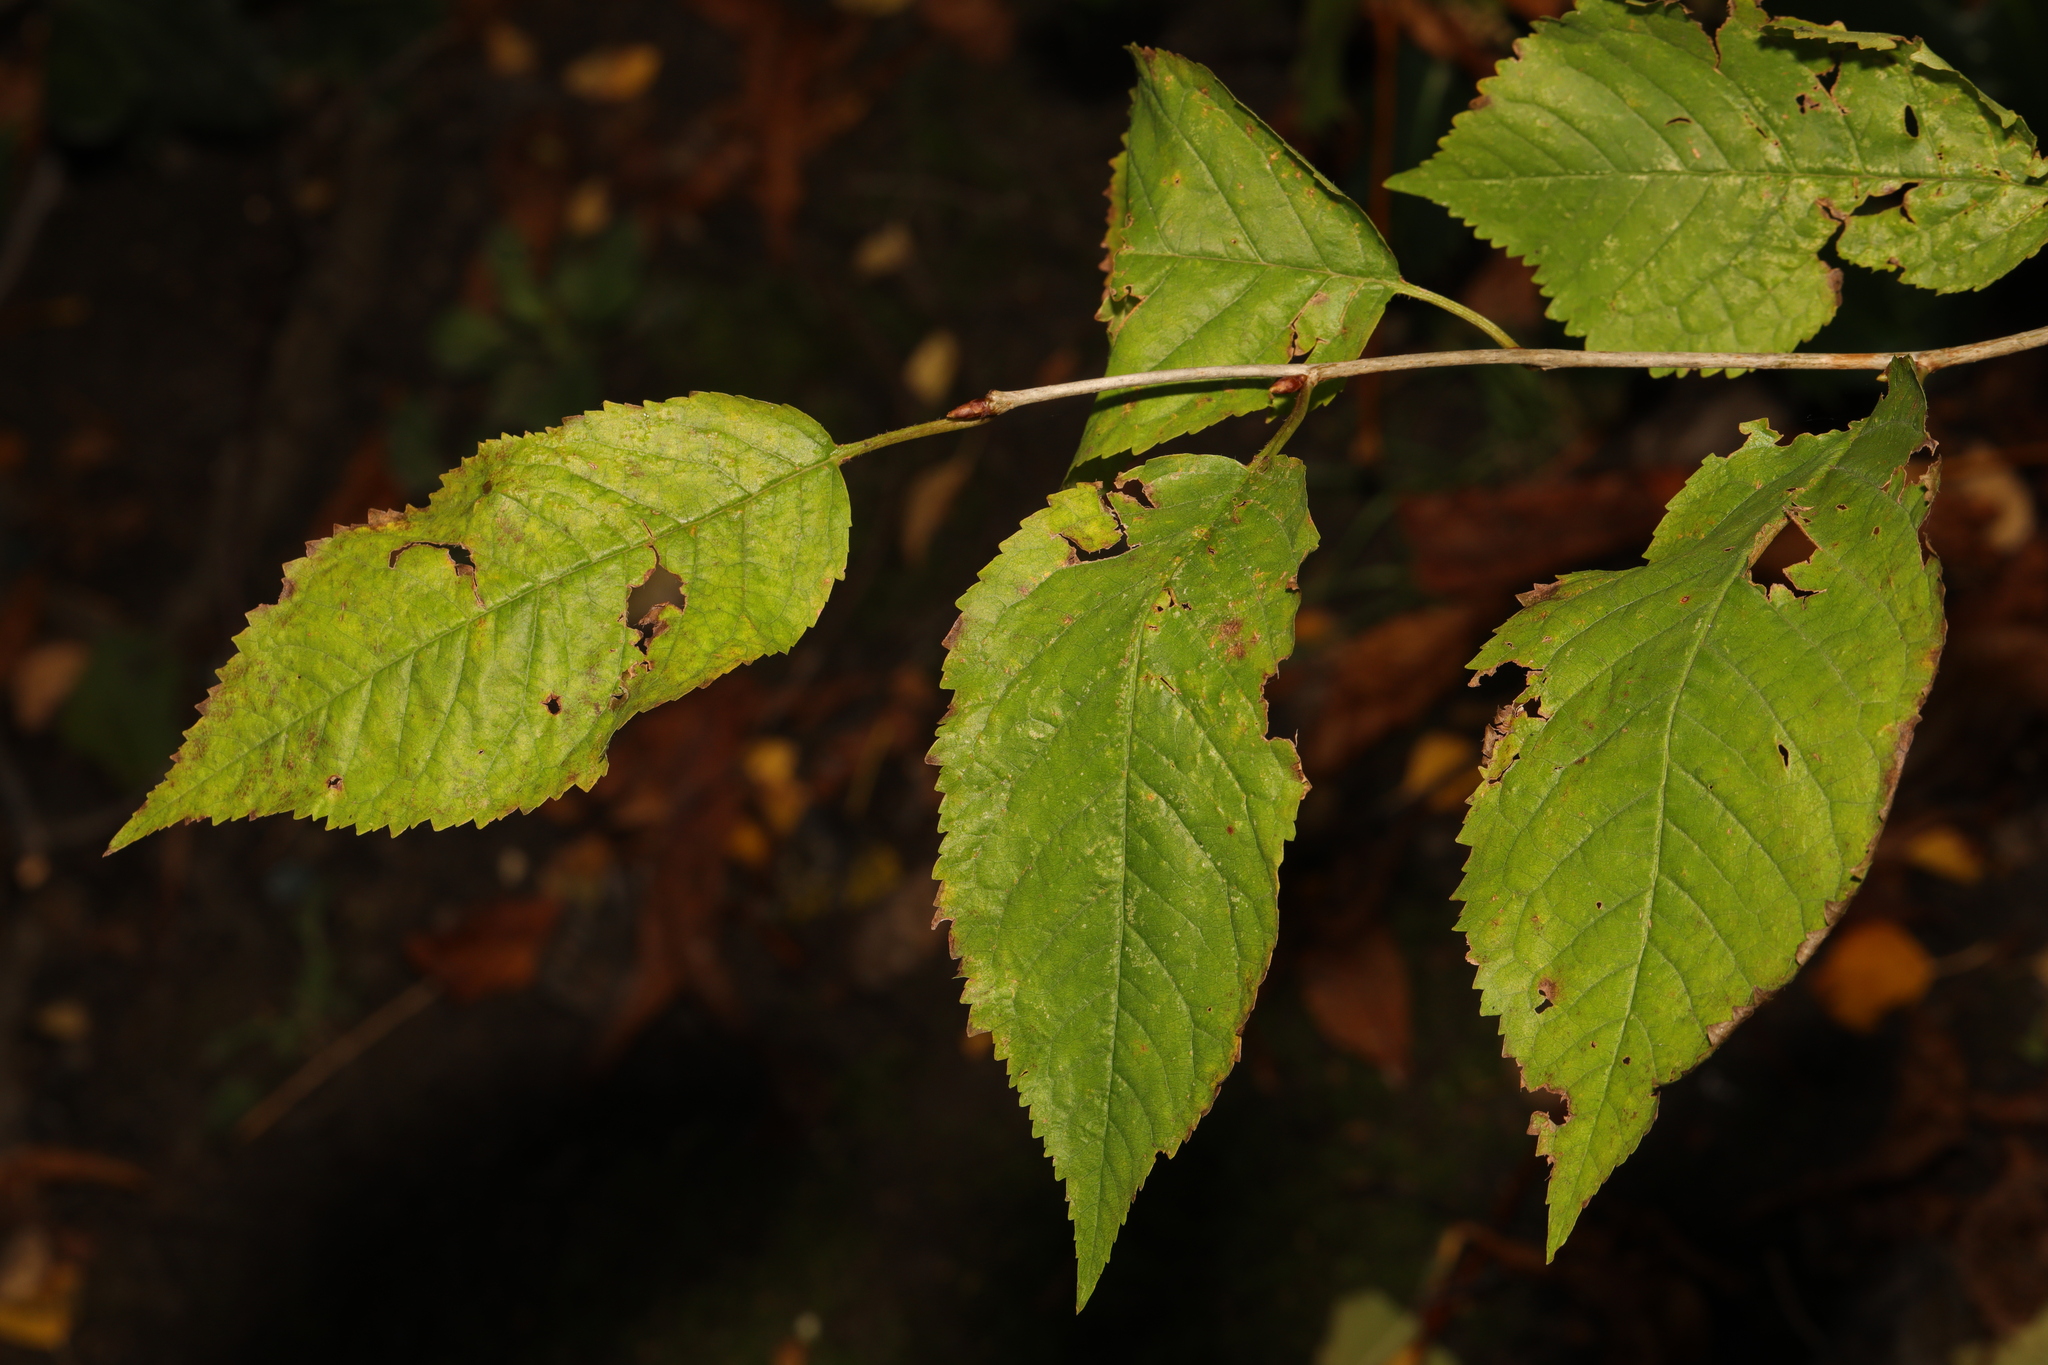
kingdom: Plantae
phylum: Tracheophyta
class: Magnoliopsida
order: Rosales
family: Rosaceae
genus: Prunus
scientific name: Prunus avium
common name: Sweet cherry
